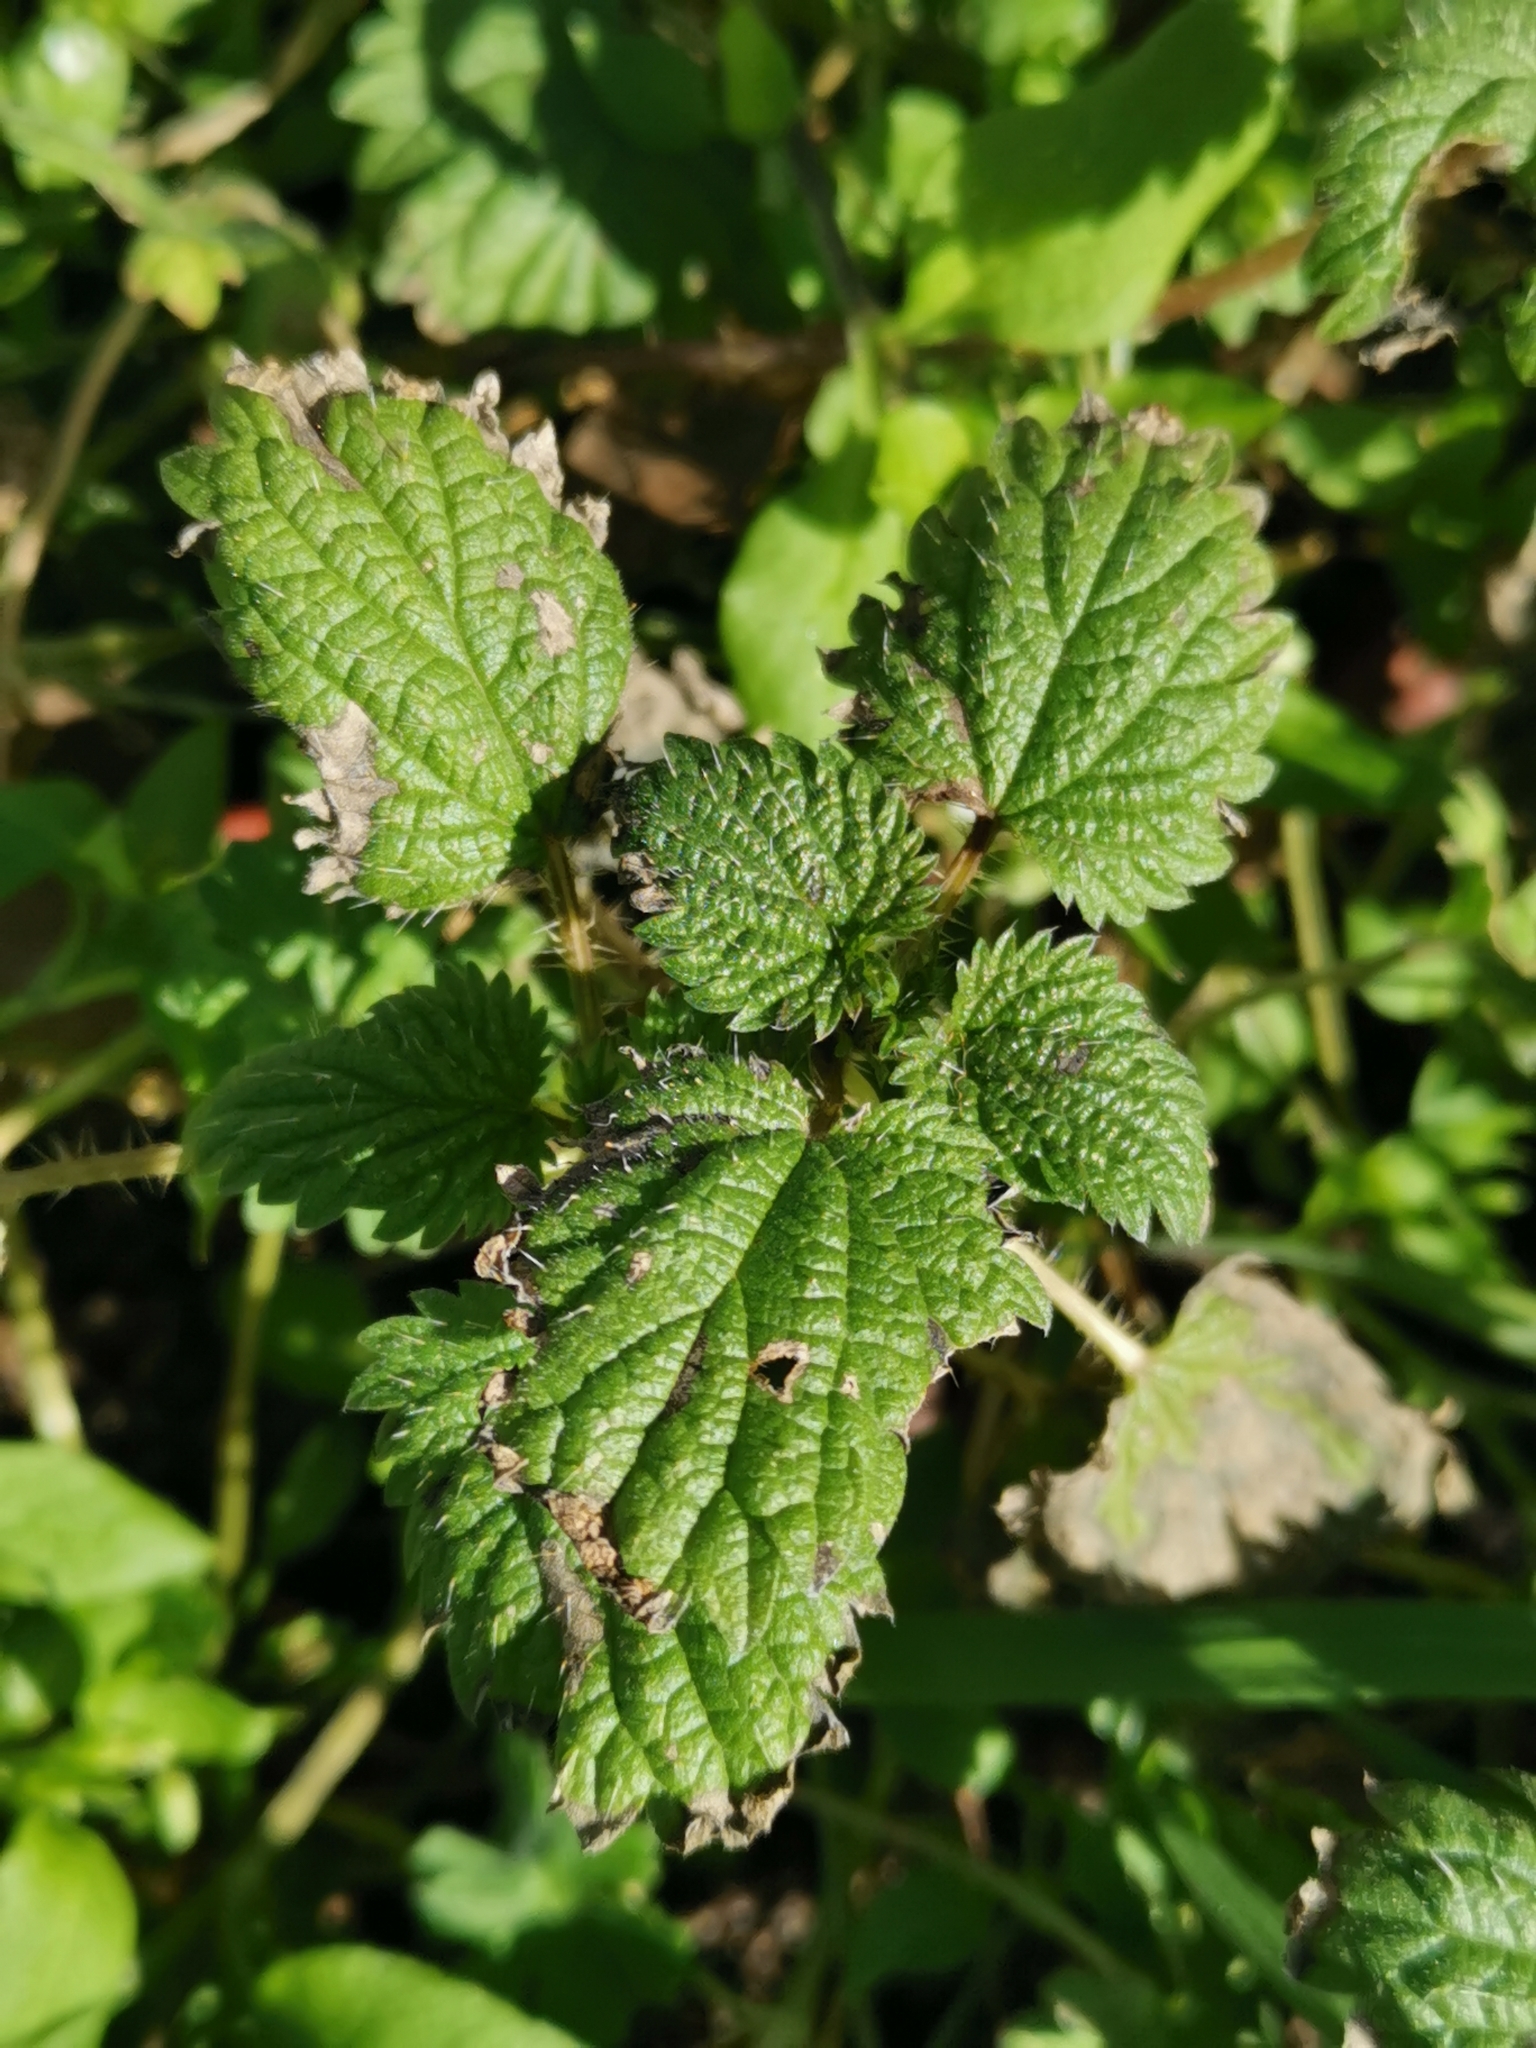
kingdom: Plantae
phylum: Tracheophyta
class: Magnoliopsida
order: Rosales
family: Urticaceae
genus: Urtica
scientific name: Urtica dioica
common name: Common nettle
